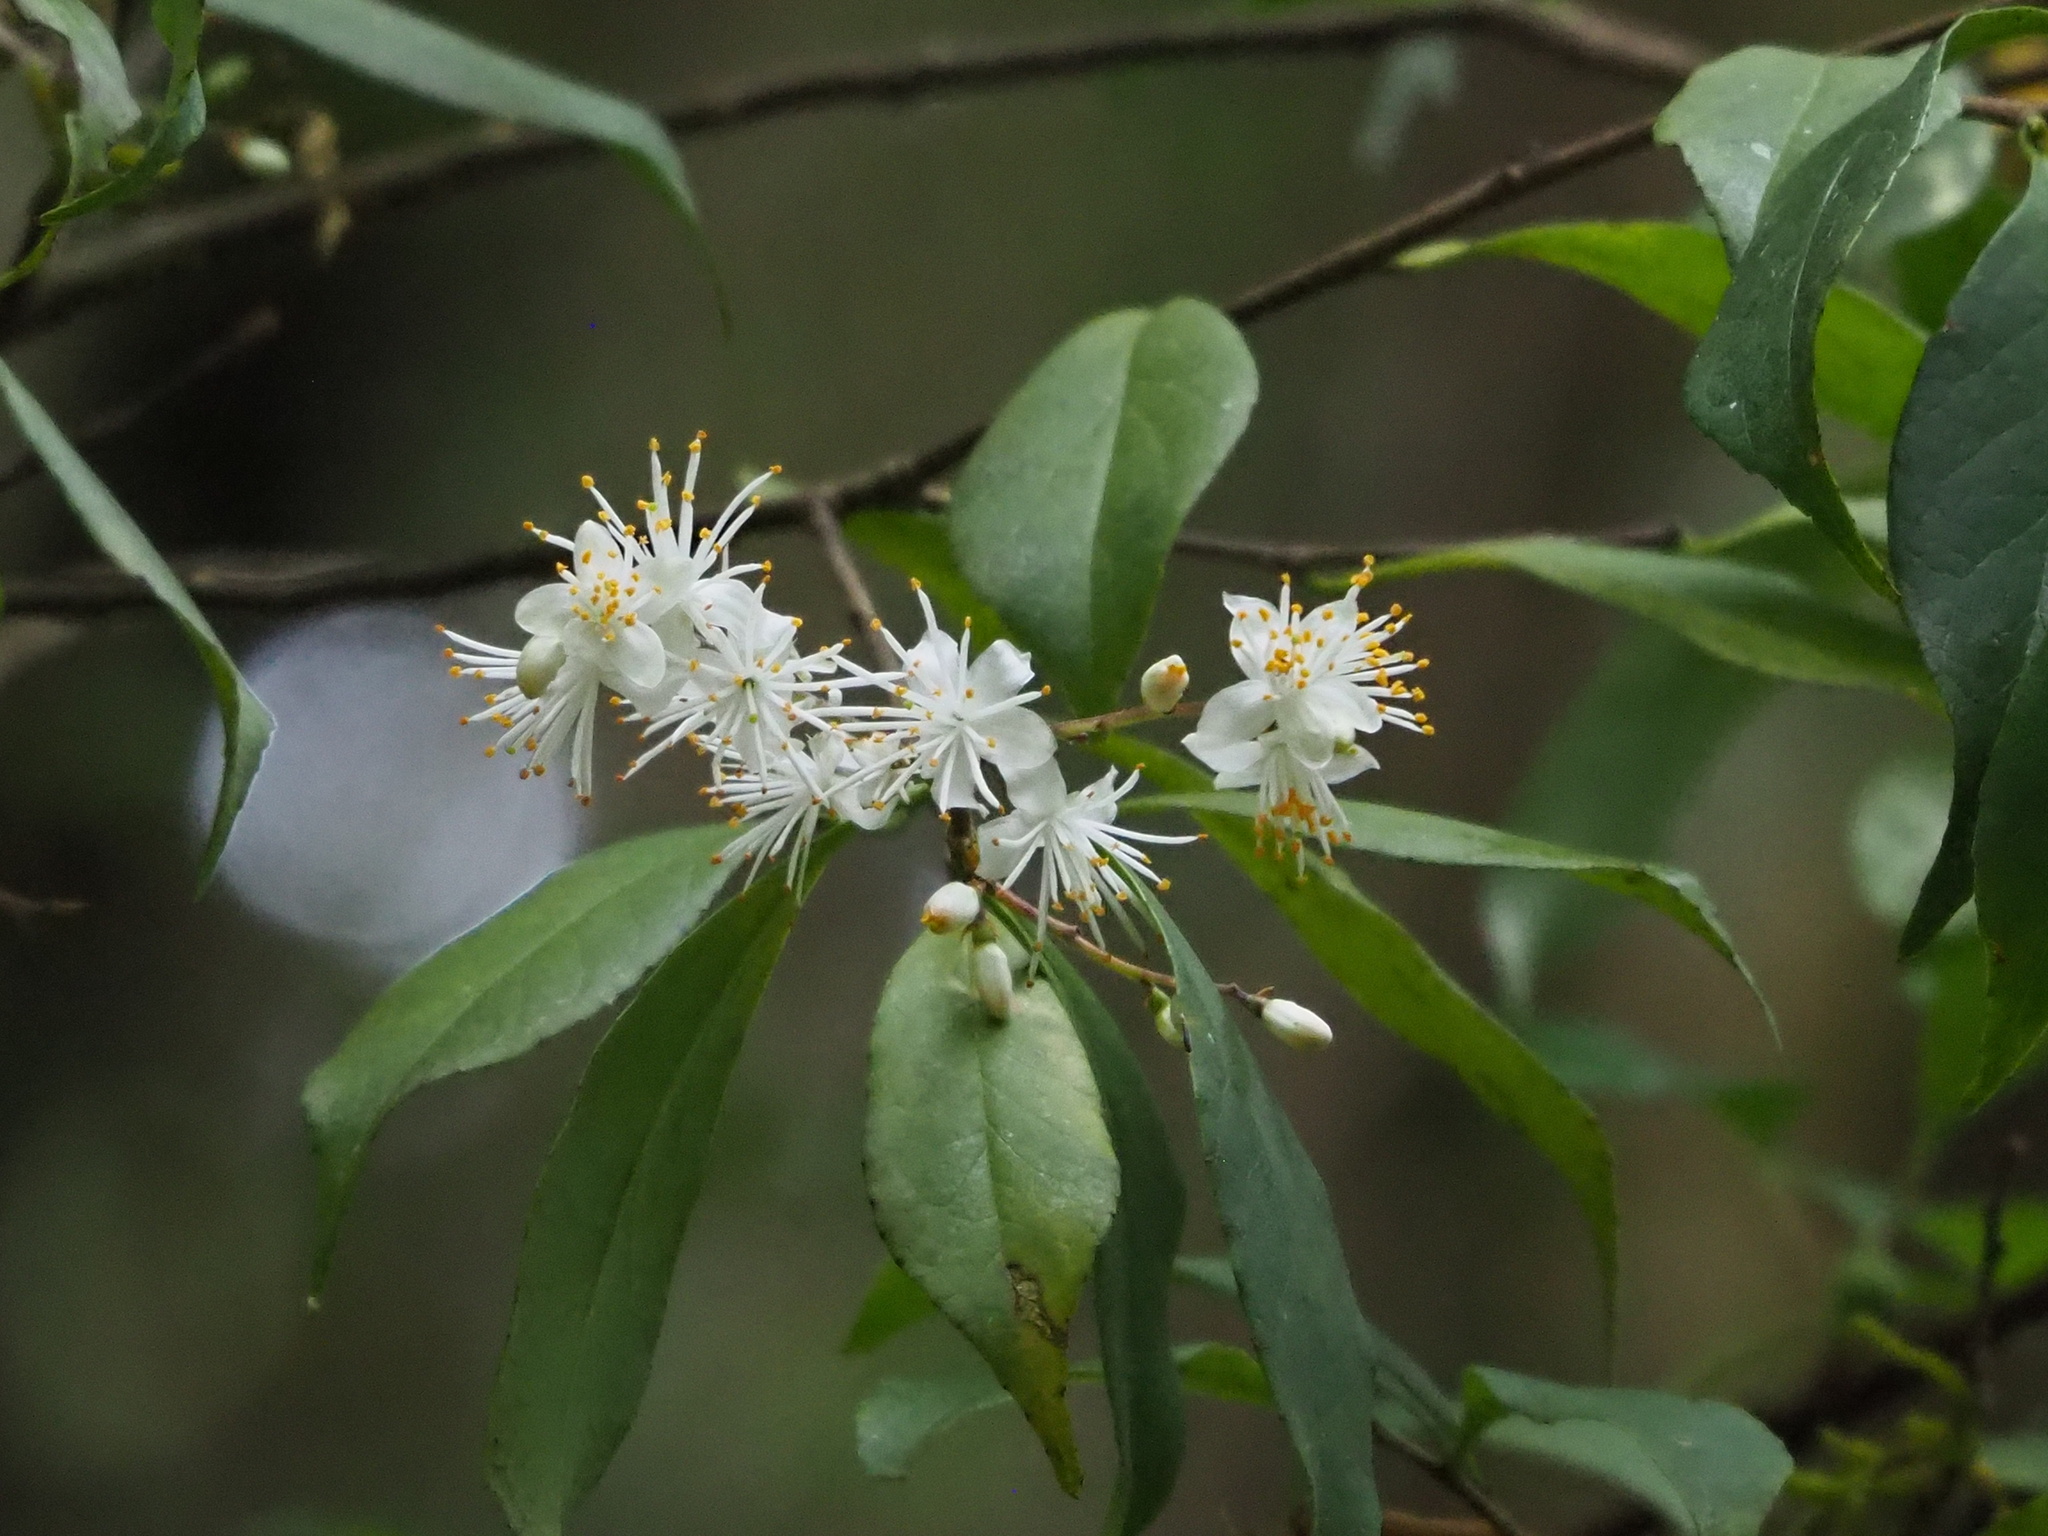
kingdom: Plantae
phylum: Tracheophyta
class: Magnoliopsida
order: Ericales
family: Symplocaceae
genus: Symplocos
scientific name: Symplocos sumuntia
